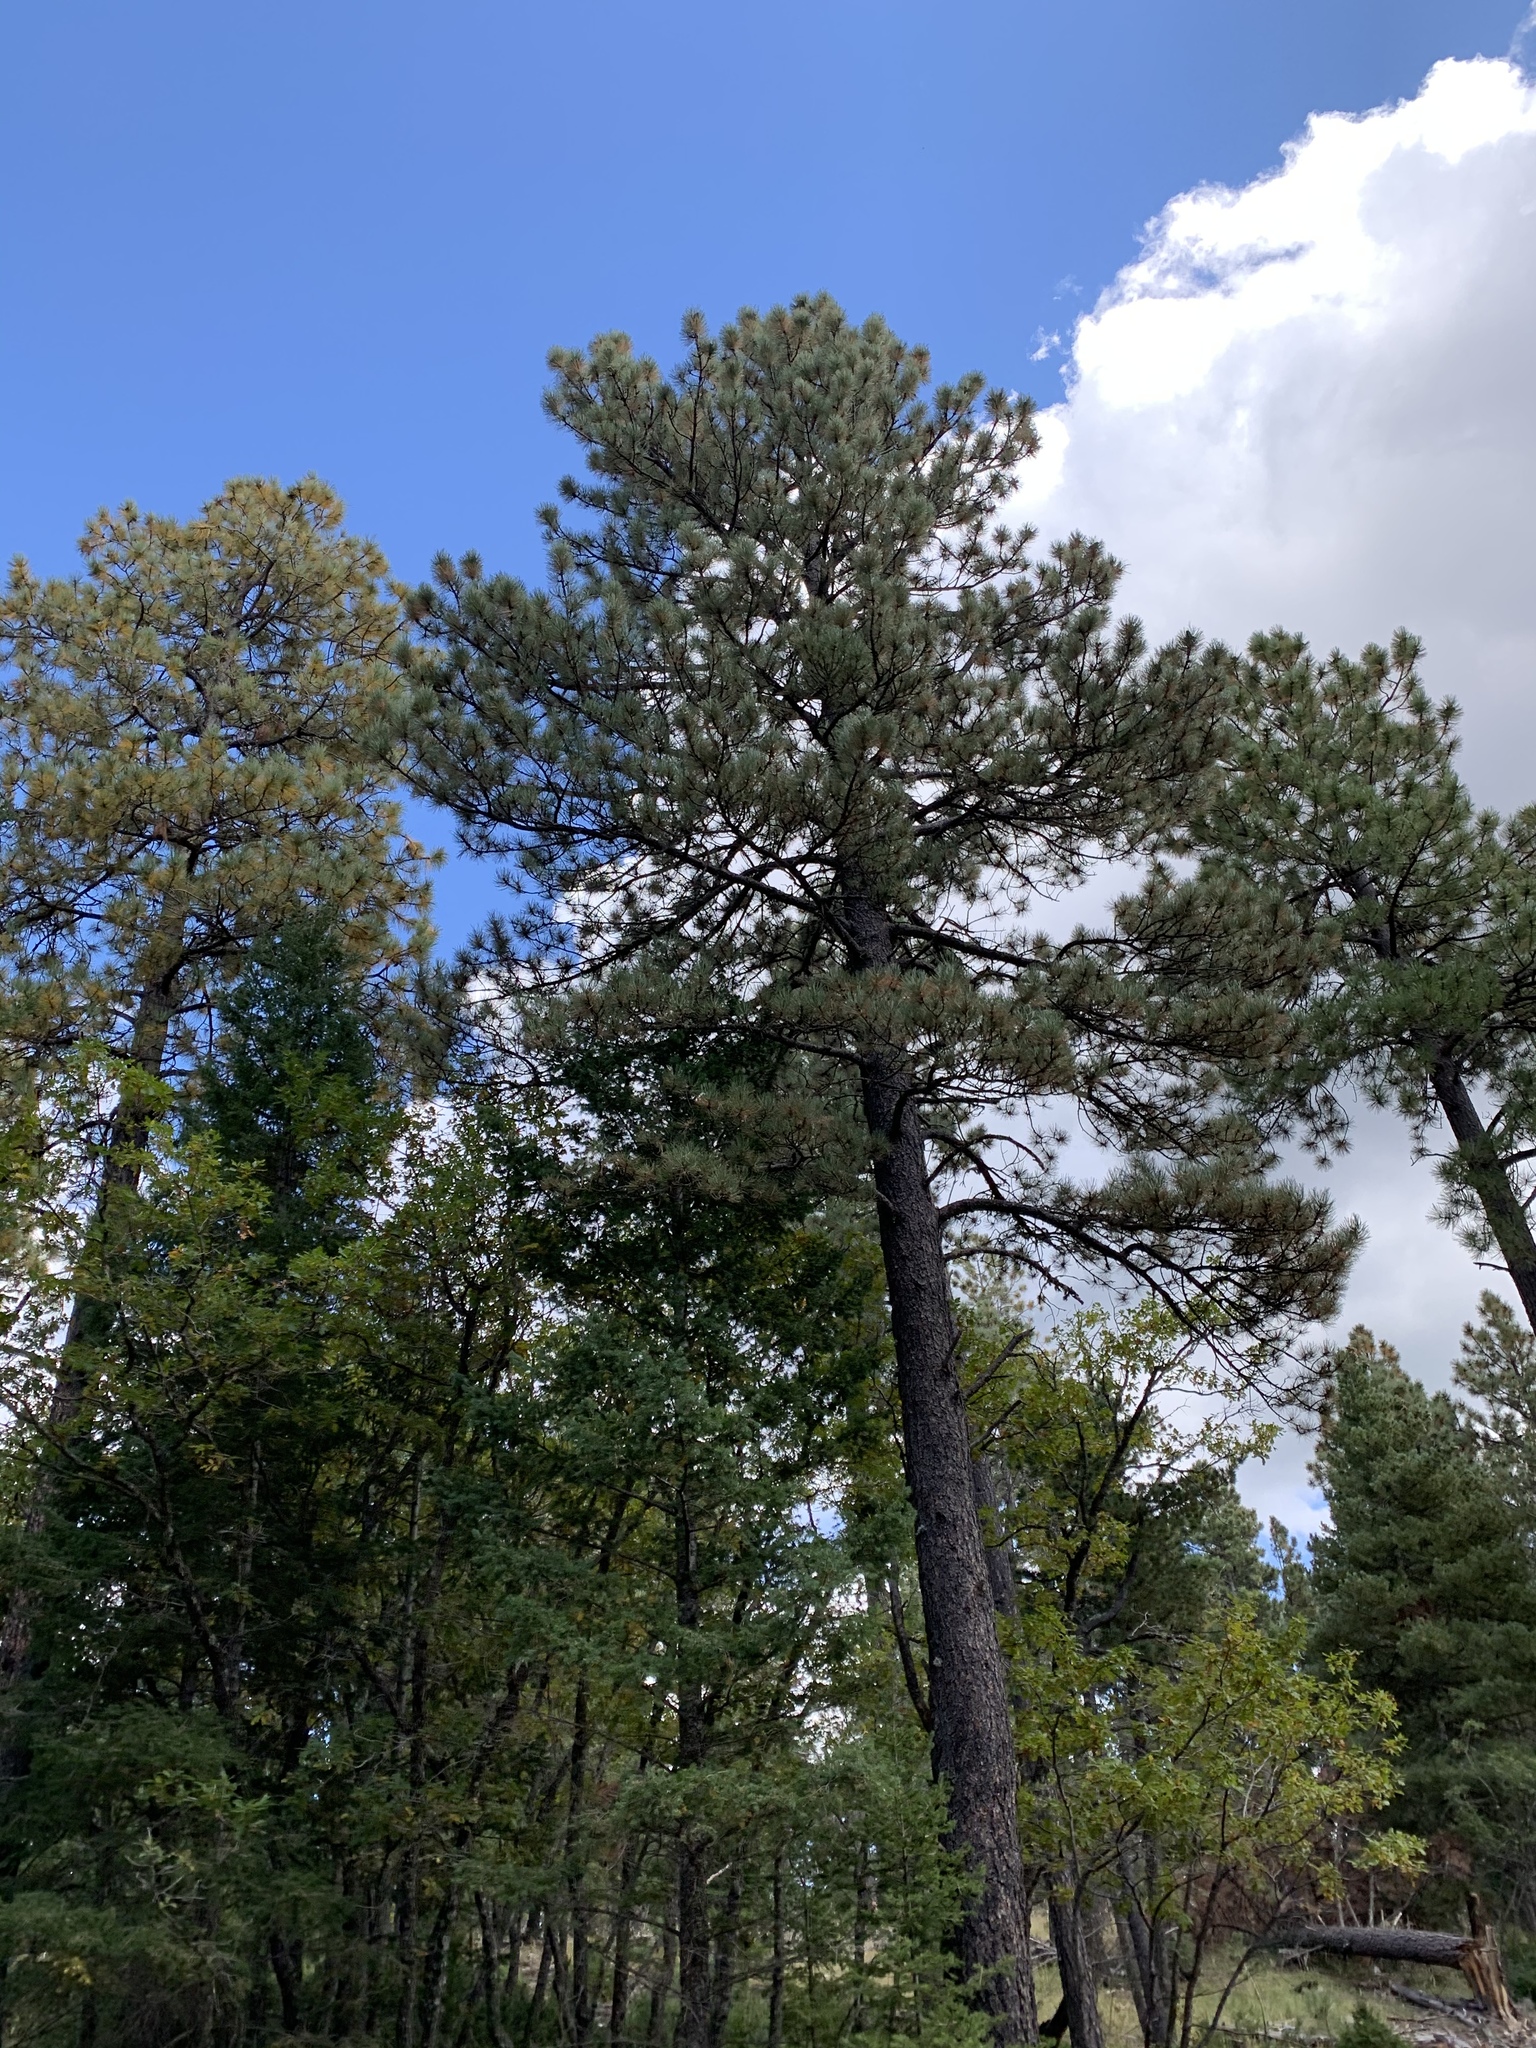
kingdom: Plantae
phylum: Tracheophyta
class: Pinopsida
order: Pinales
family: Pinaceae
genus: Pinus
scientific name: Pinus ponderosa
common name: Western yellow-pine
